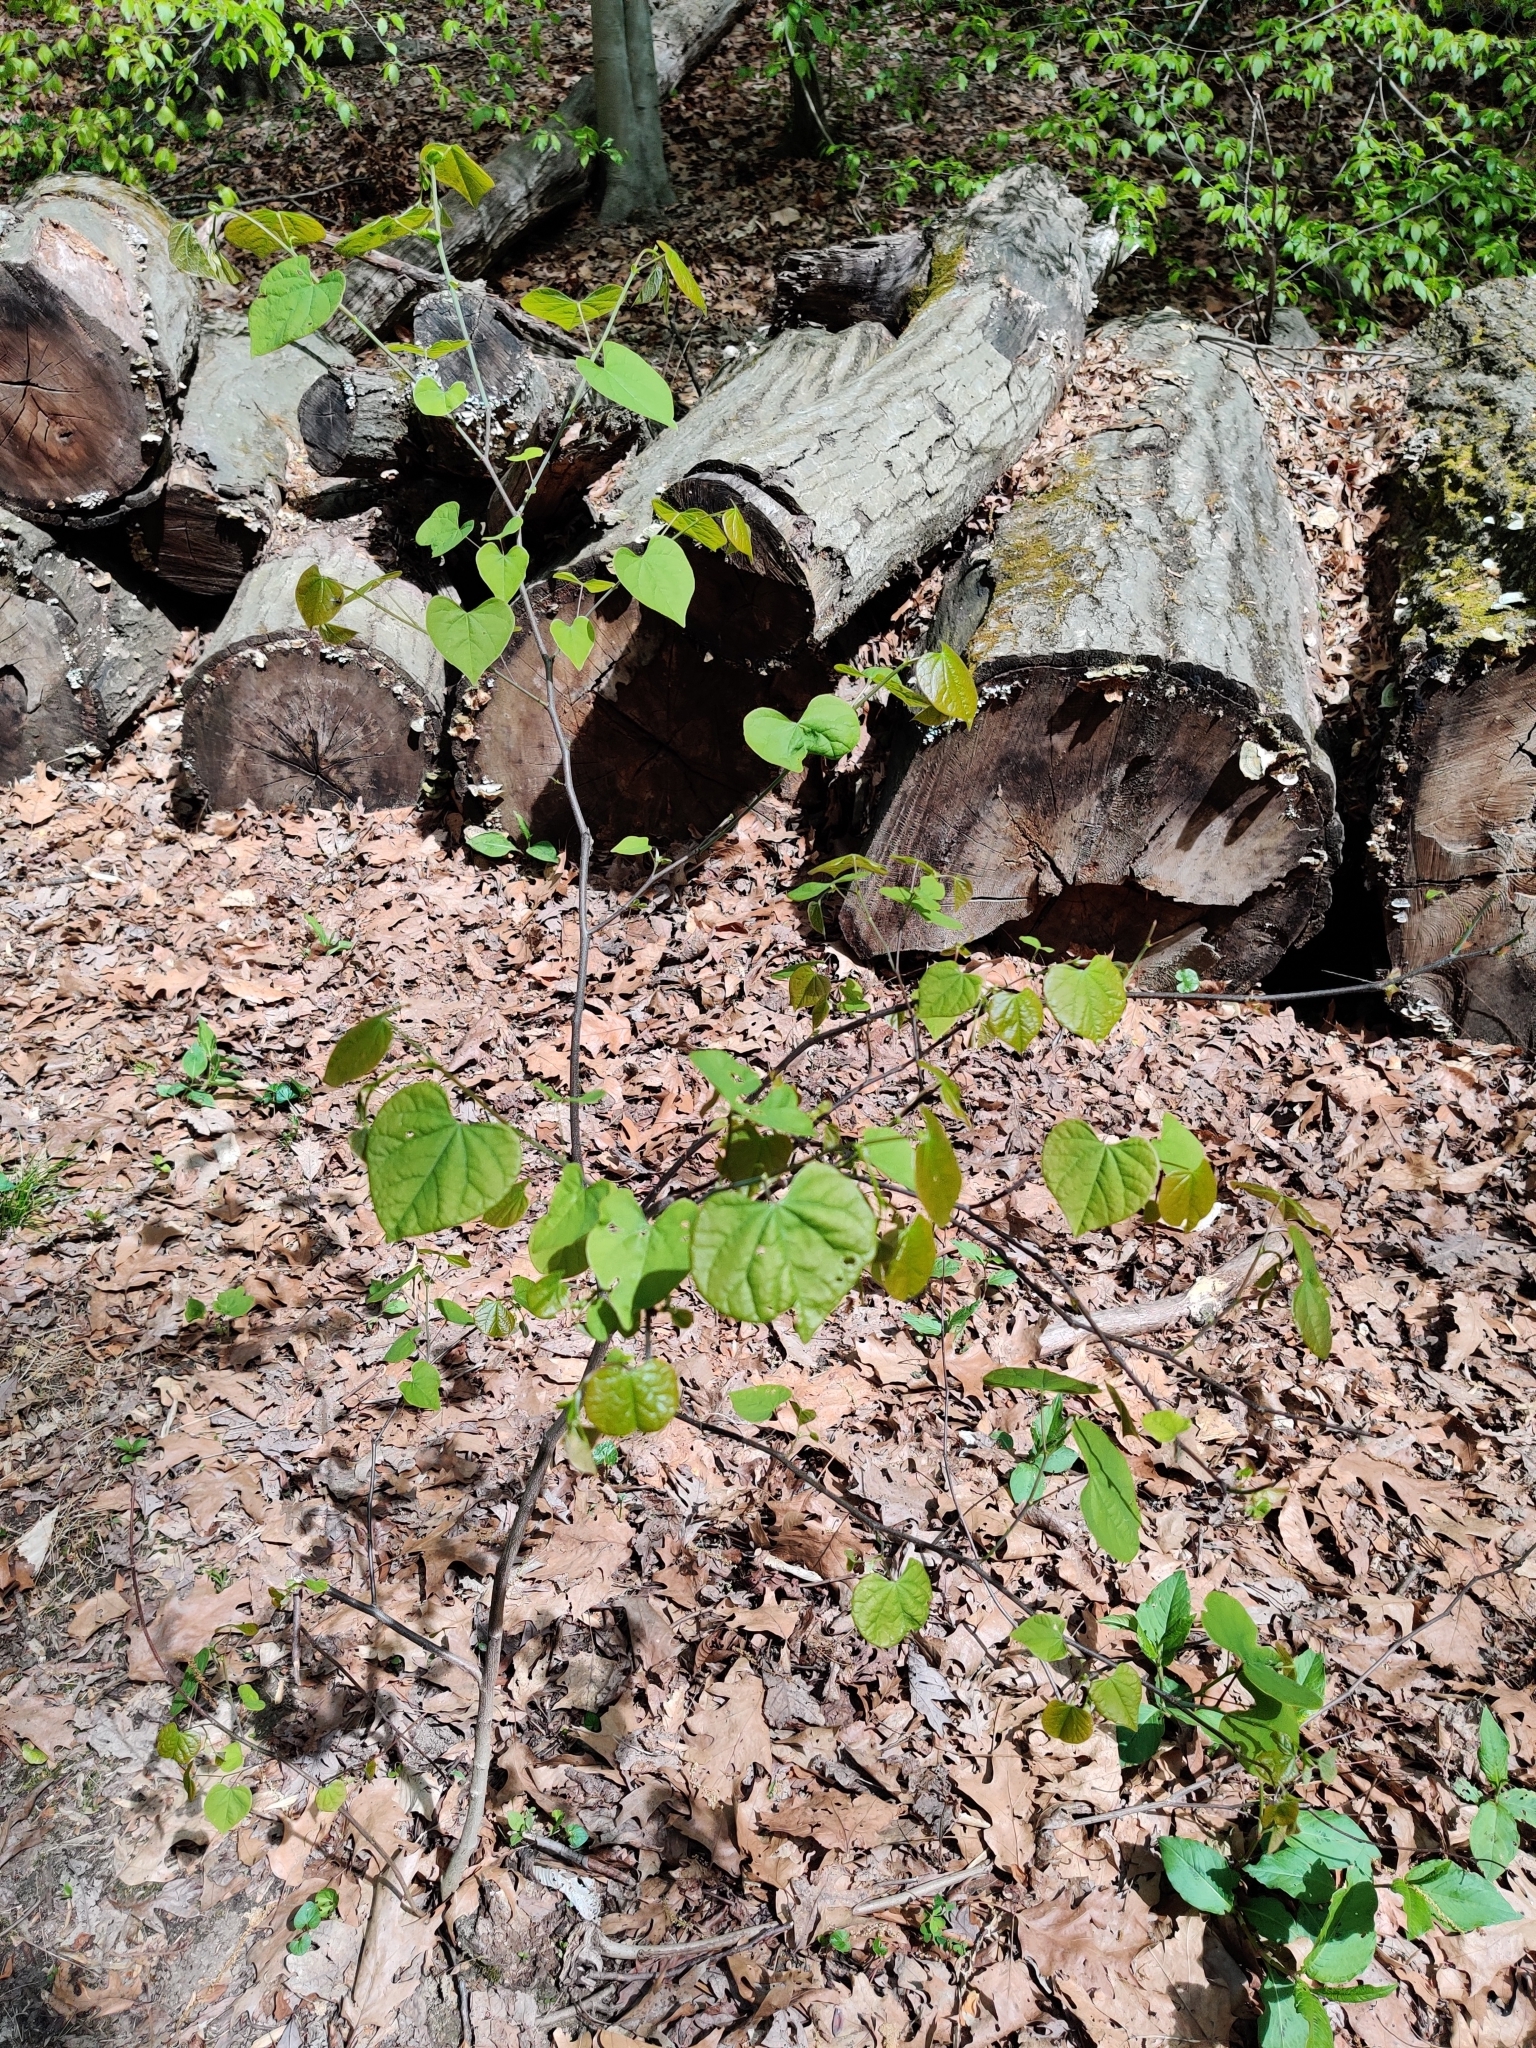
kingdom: Plantae
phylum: Tracheophyta
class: Magnoliopsida
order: Fabales
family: Fabaceae
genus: Cercis
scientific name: Cercis canadensis
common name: Eastern redbud
